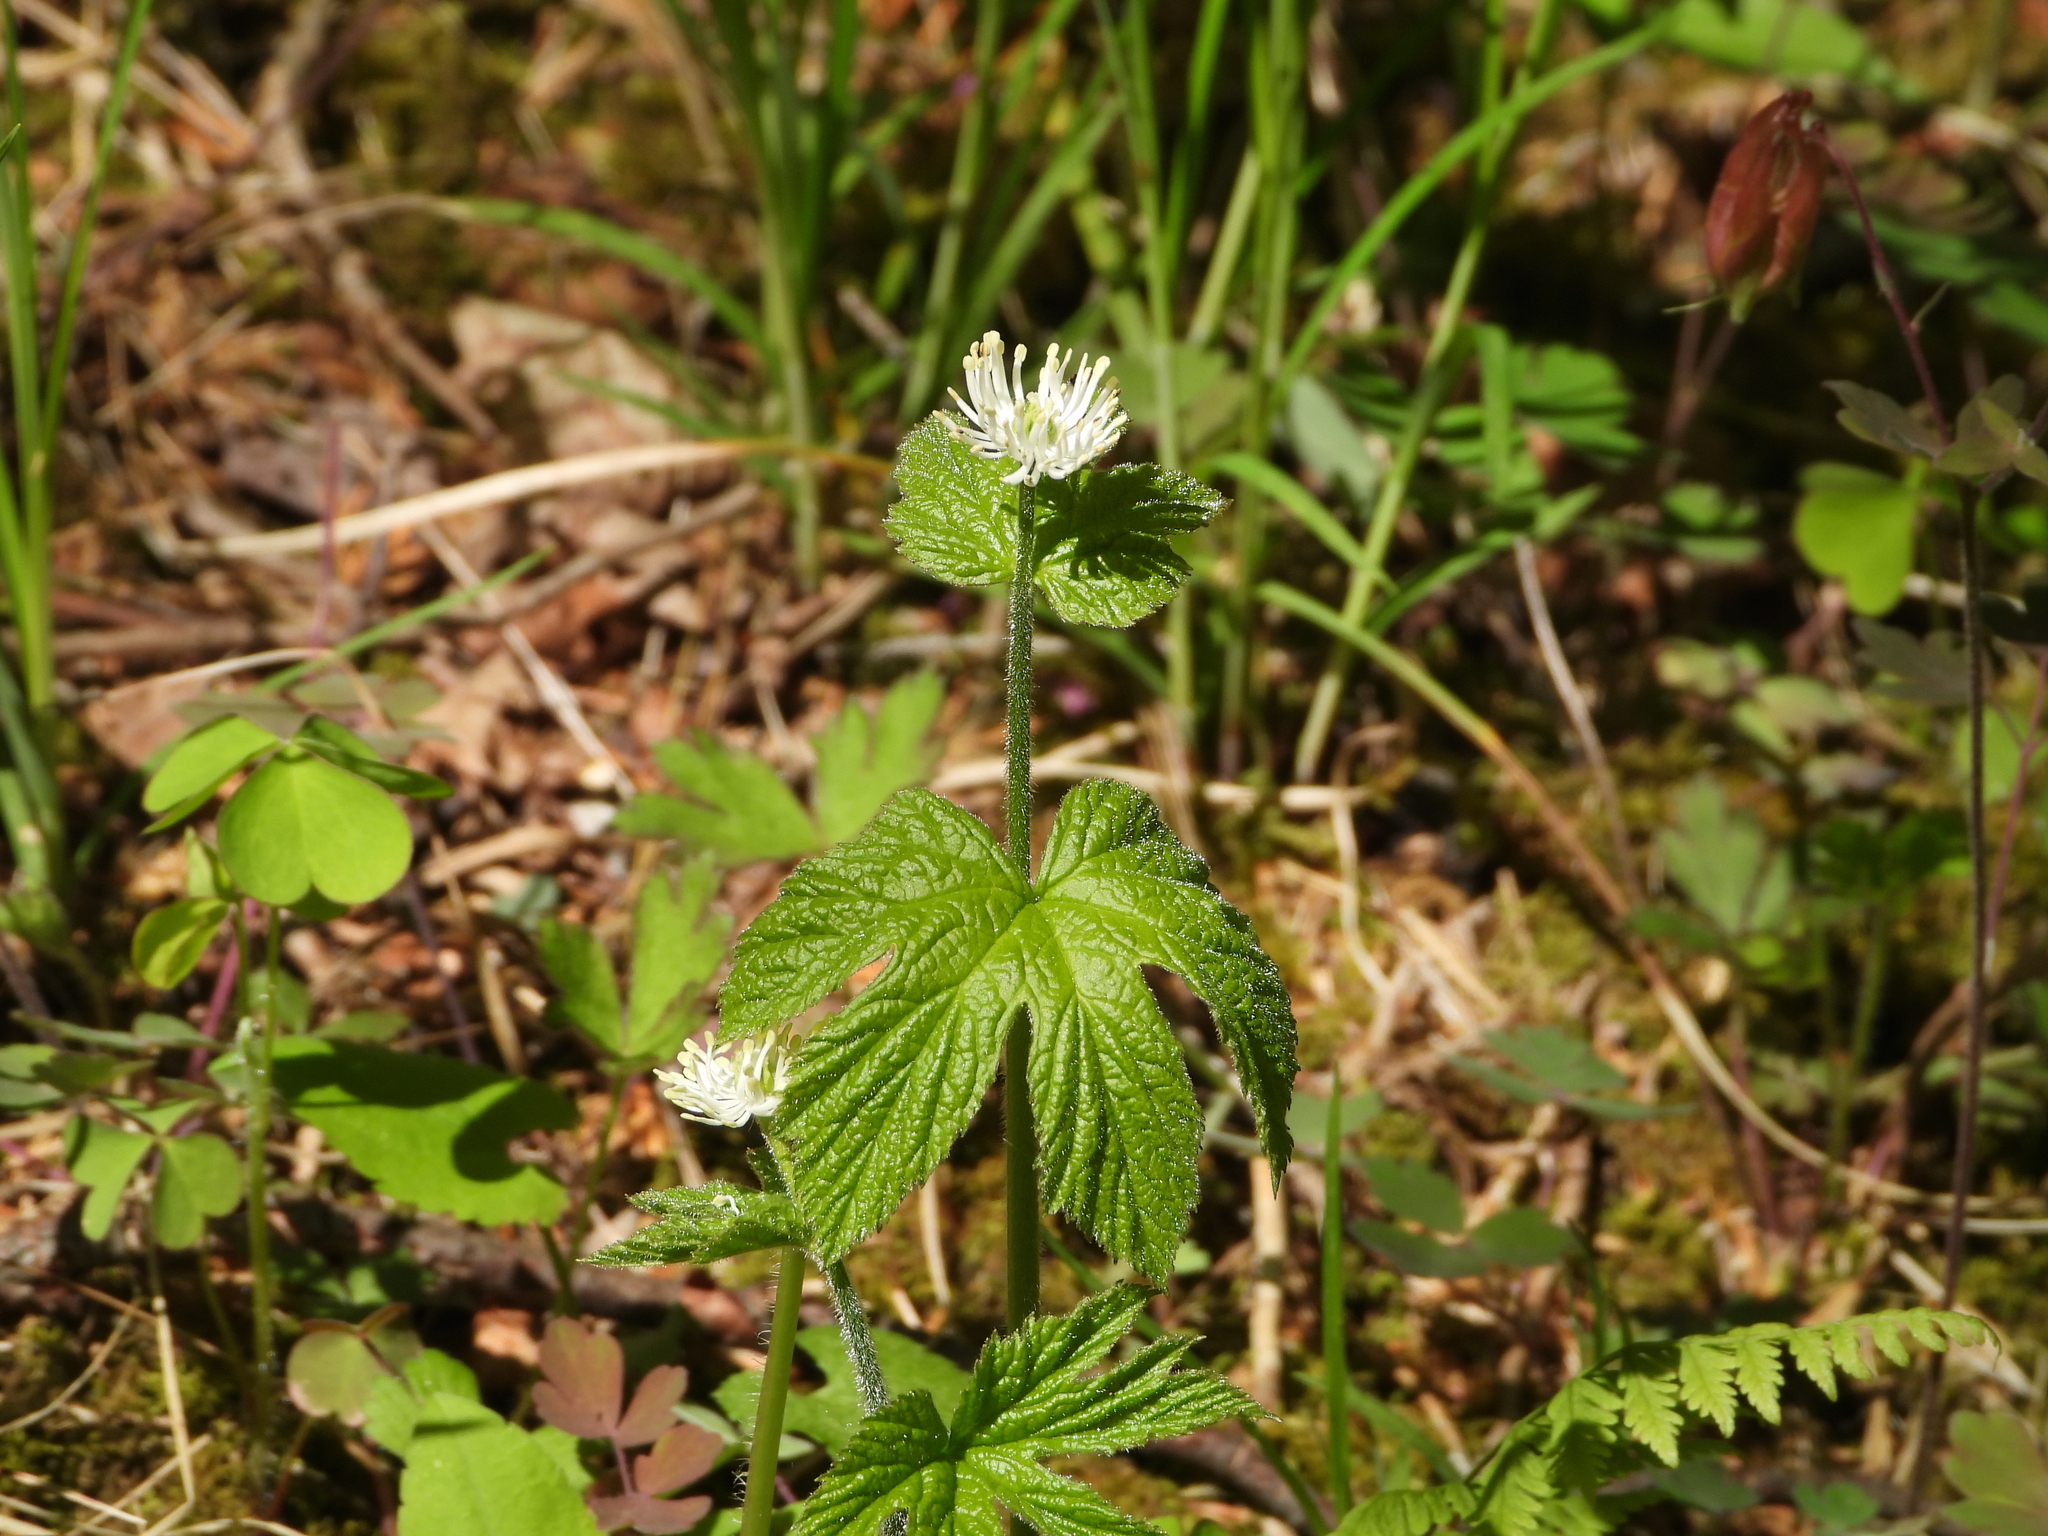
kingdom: Plantae
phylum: Tracheophyta
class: Magnoliopsida
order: Ranunculales
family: Ranunculaceae
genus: Hydrastis
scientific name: Hydrastis canadensis
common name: Goldenseal
